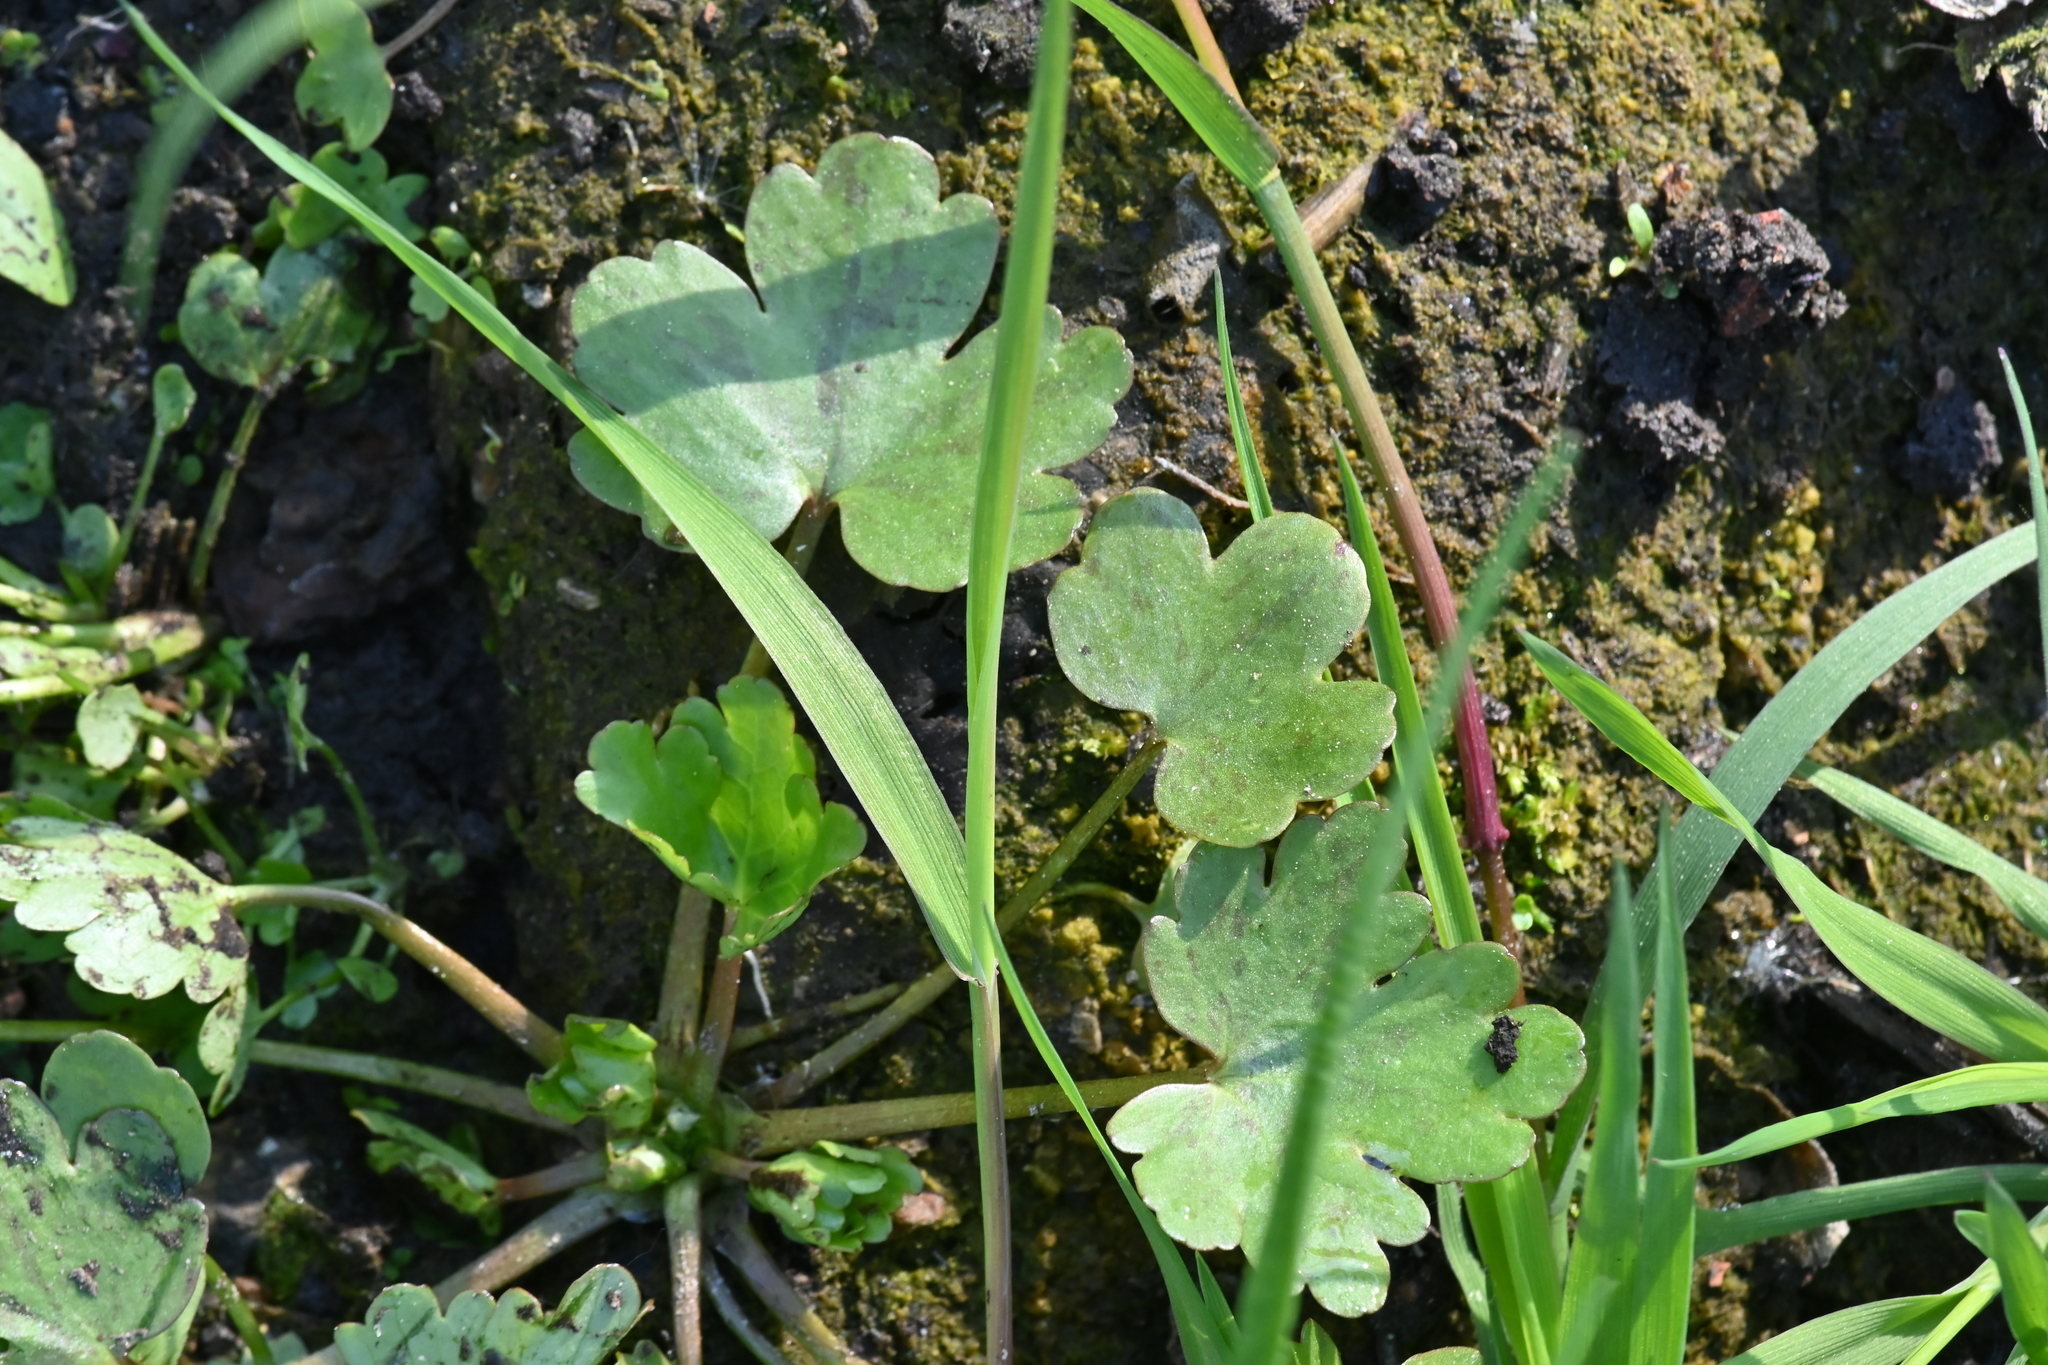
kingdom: Plantae
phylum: Tracheophyta
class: Magnoliopsida
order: Ranunculales
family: Ranunculaceae
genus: Ranunculus
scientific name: Ranunculus sceleratus
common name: Celery-leaved buttercup
